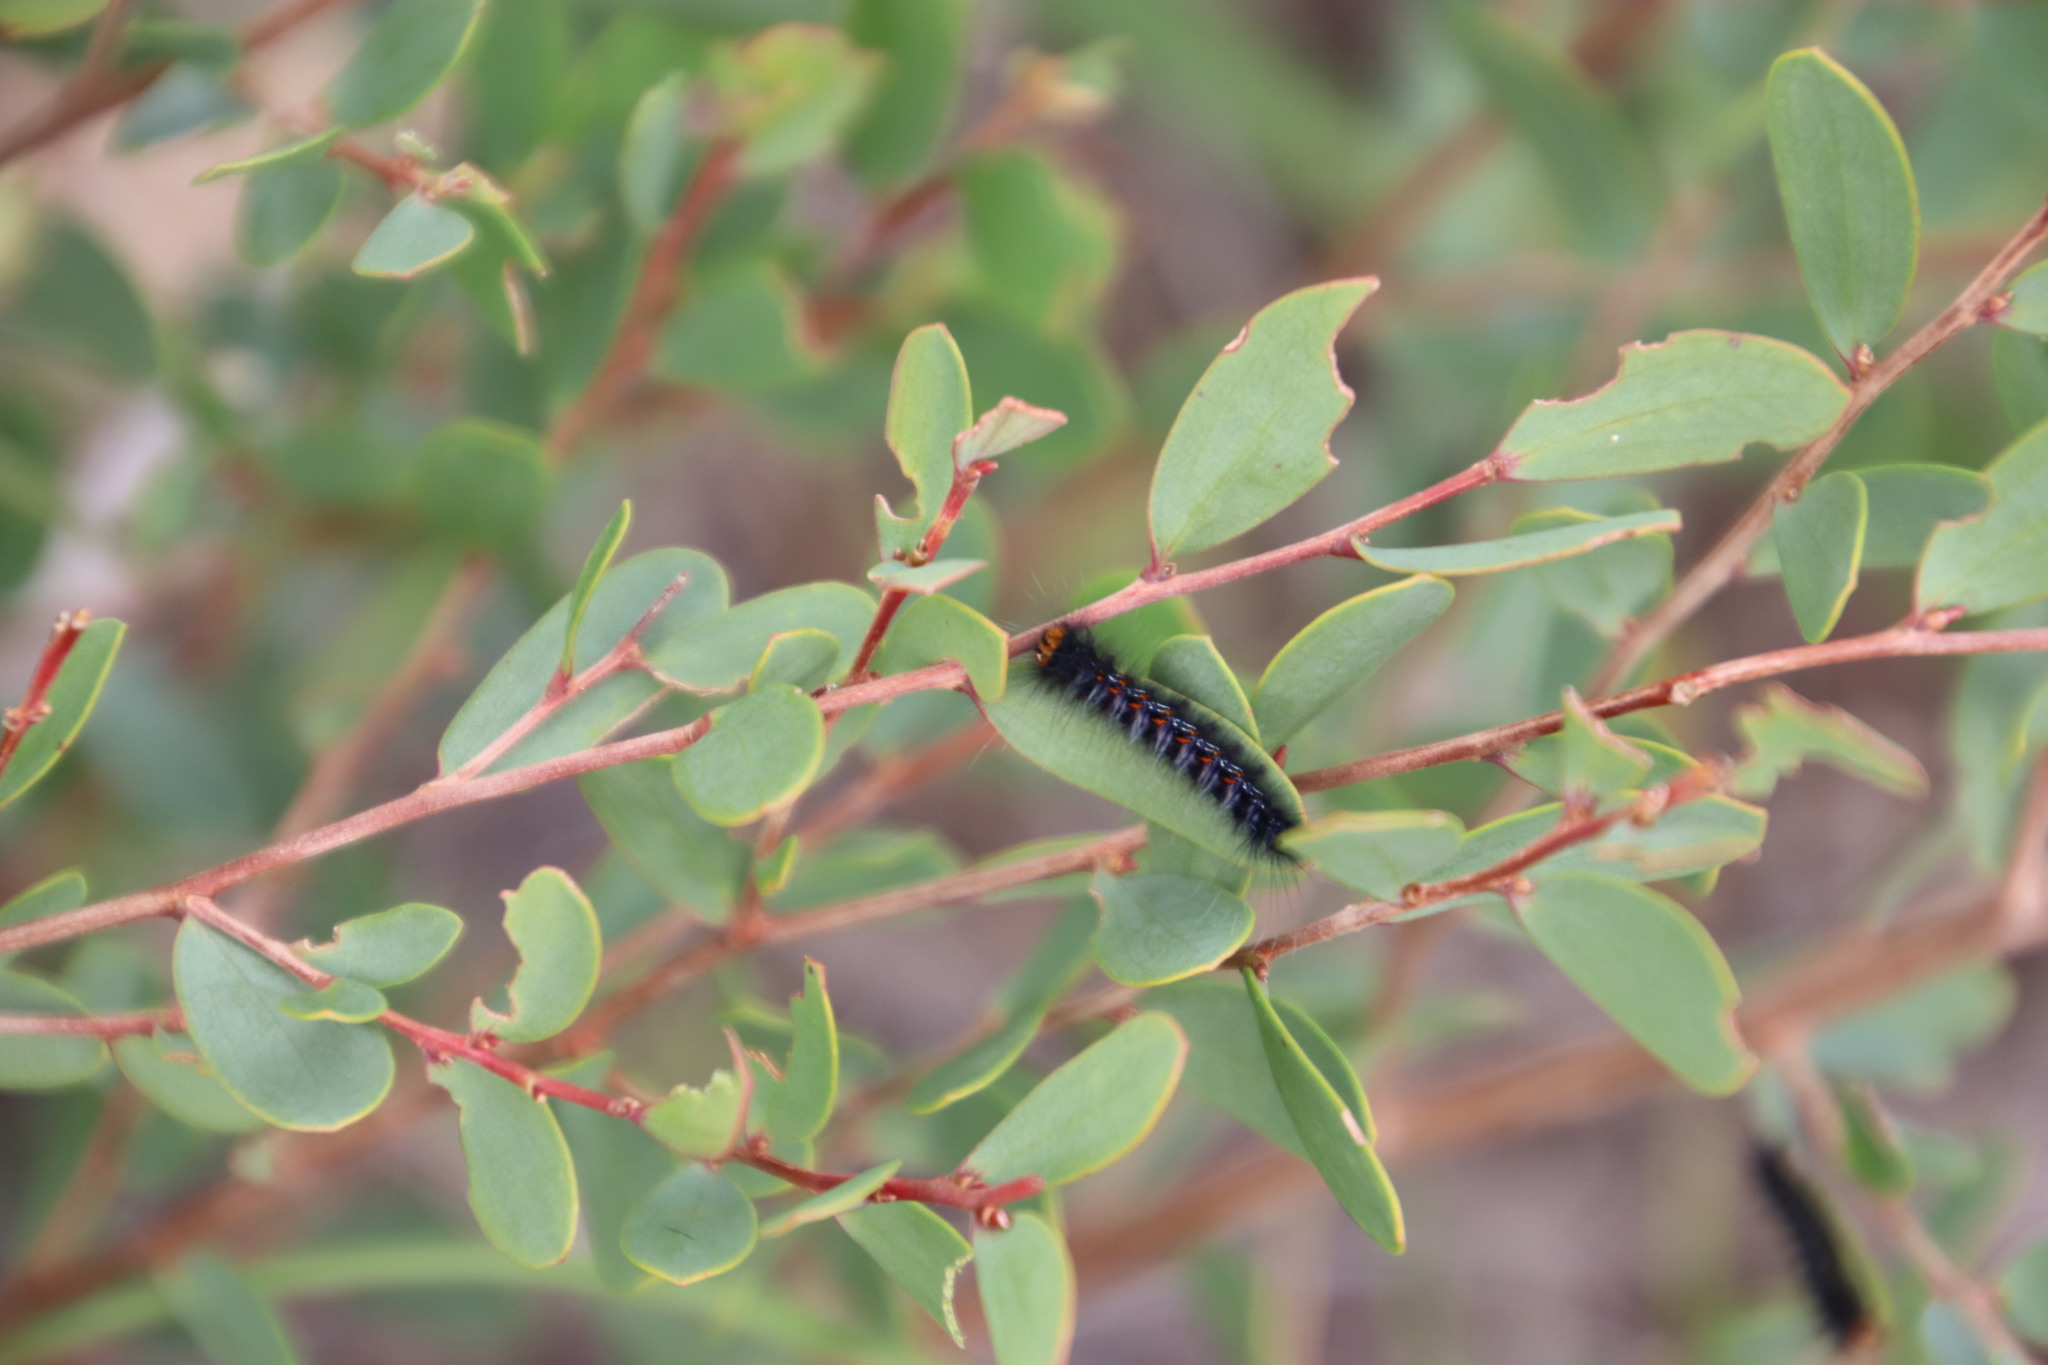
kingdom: Animalia
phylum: Arthropoda
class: Insecta
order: Lepidoptera
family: Lasiocampidae
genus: Mesocelis
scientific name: Mesocelis monticola
